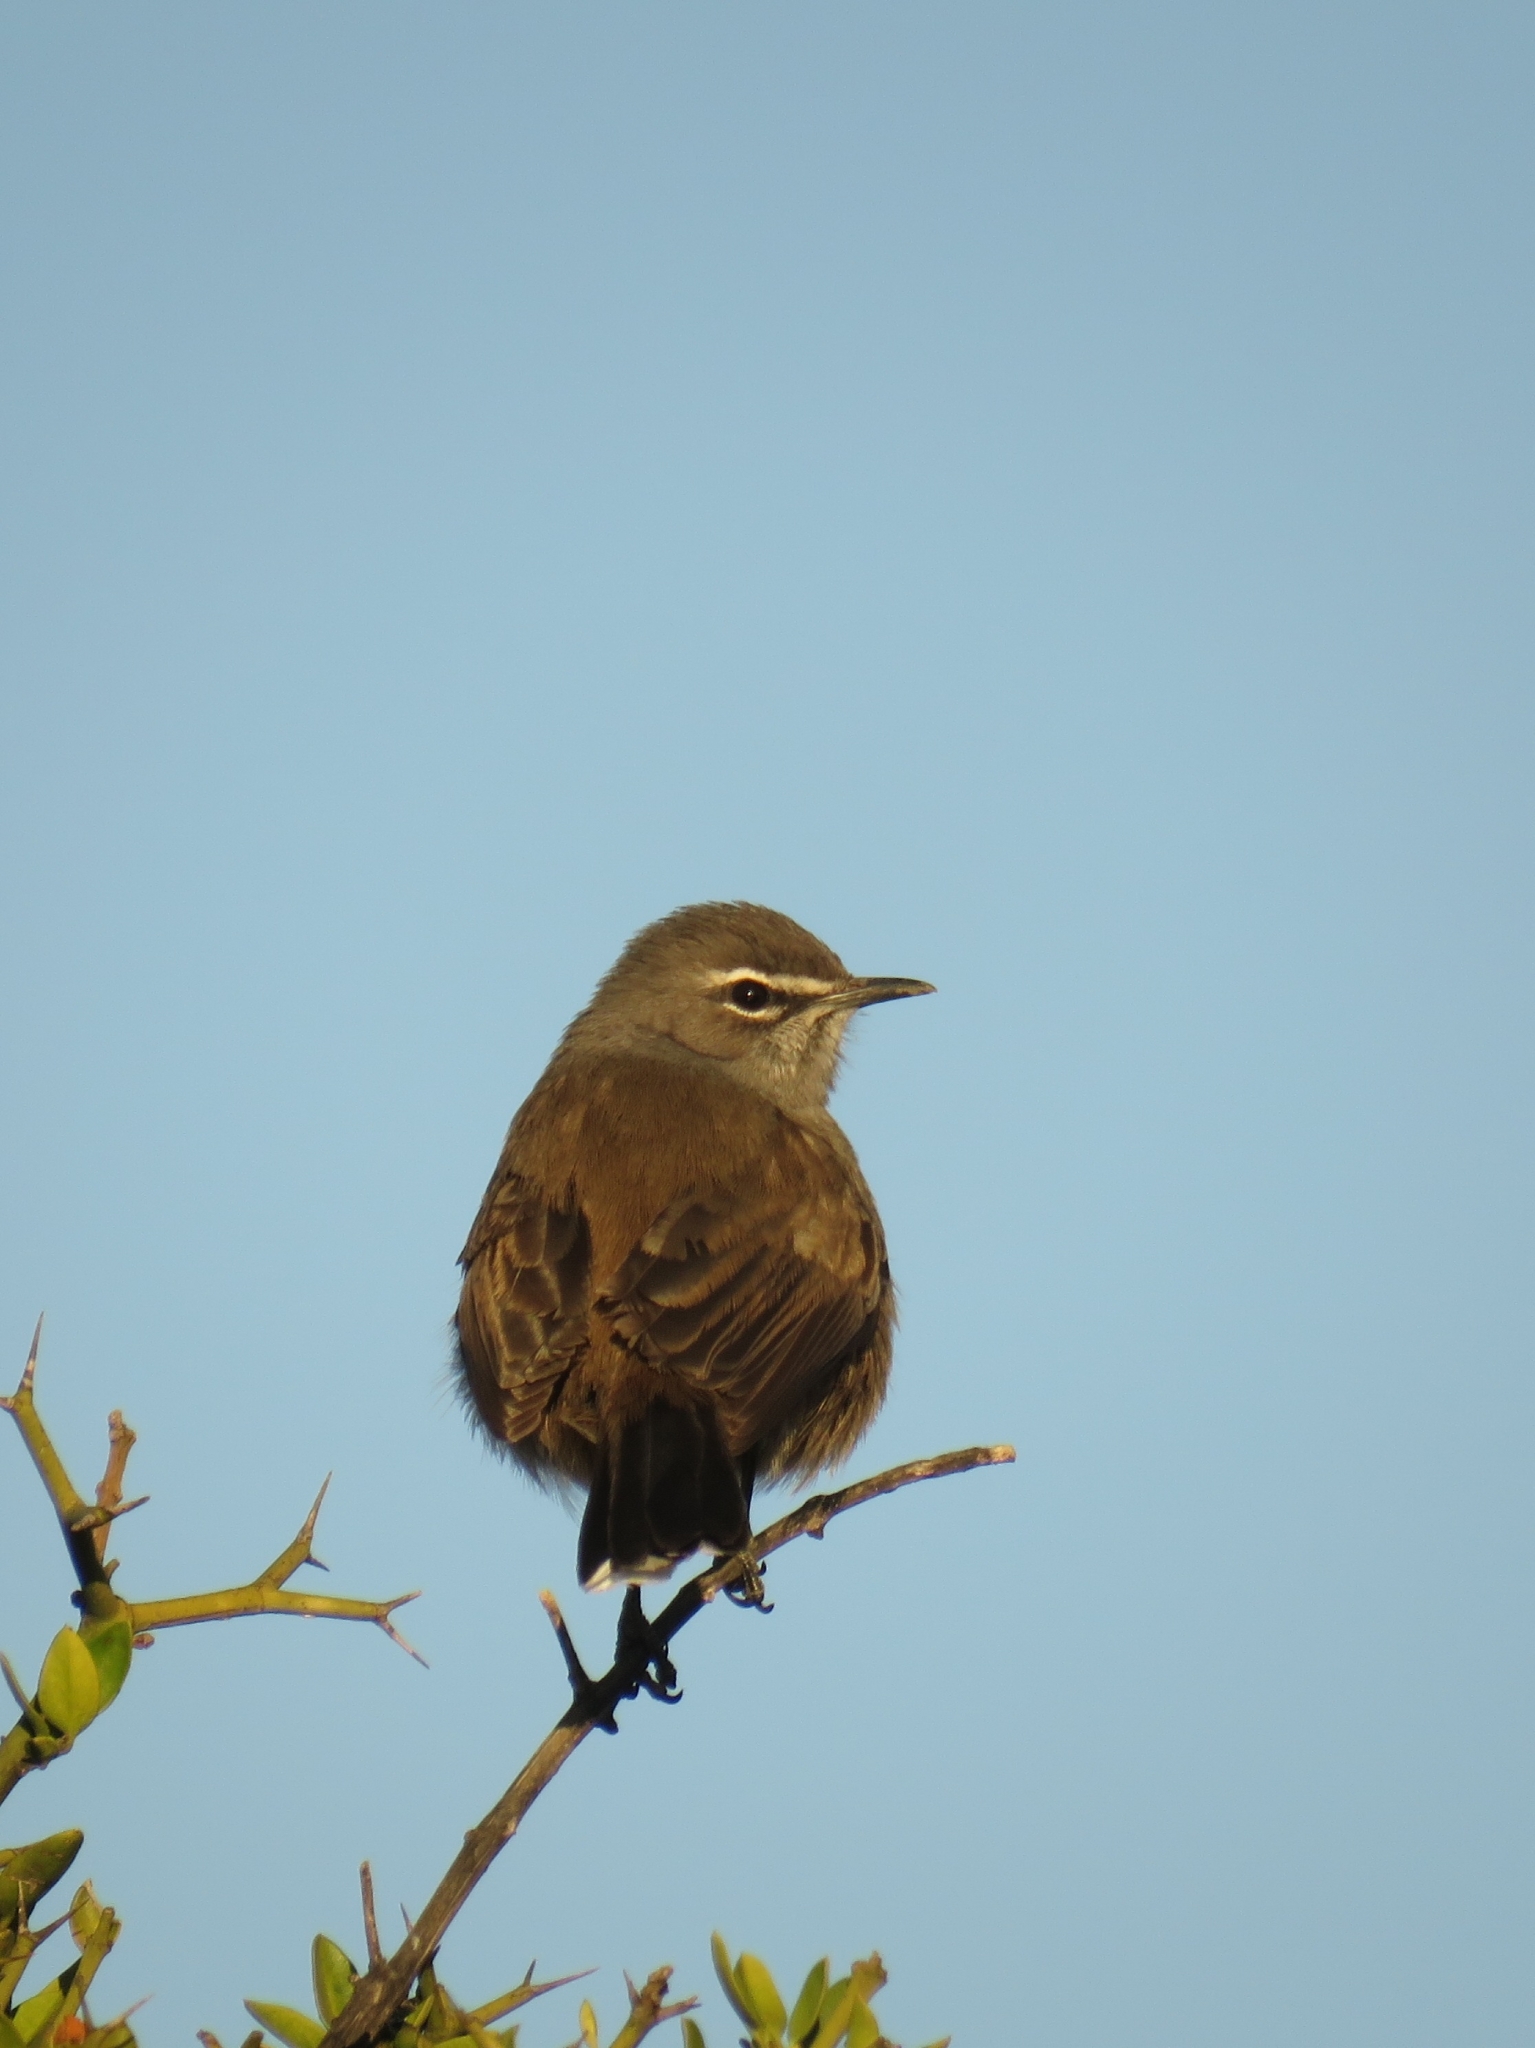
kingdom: Animalia
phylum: Chordata
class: Aves
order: Passeriformes
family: Muscicapidae
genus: Erythropygia
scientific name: Erythropygia coryphoeus
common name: Karoo scrub robin
